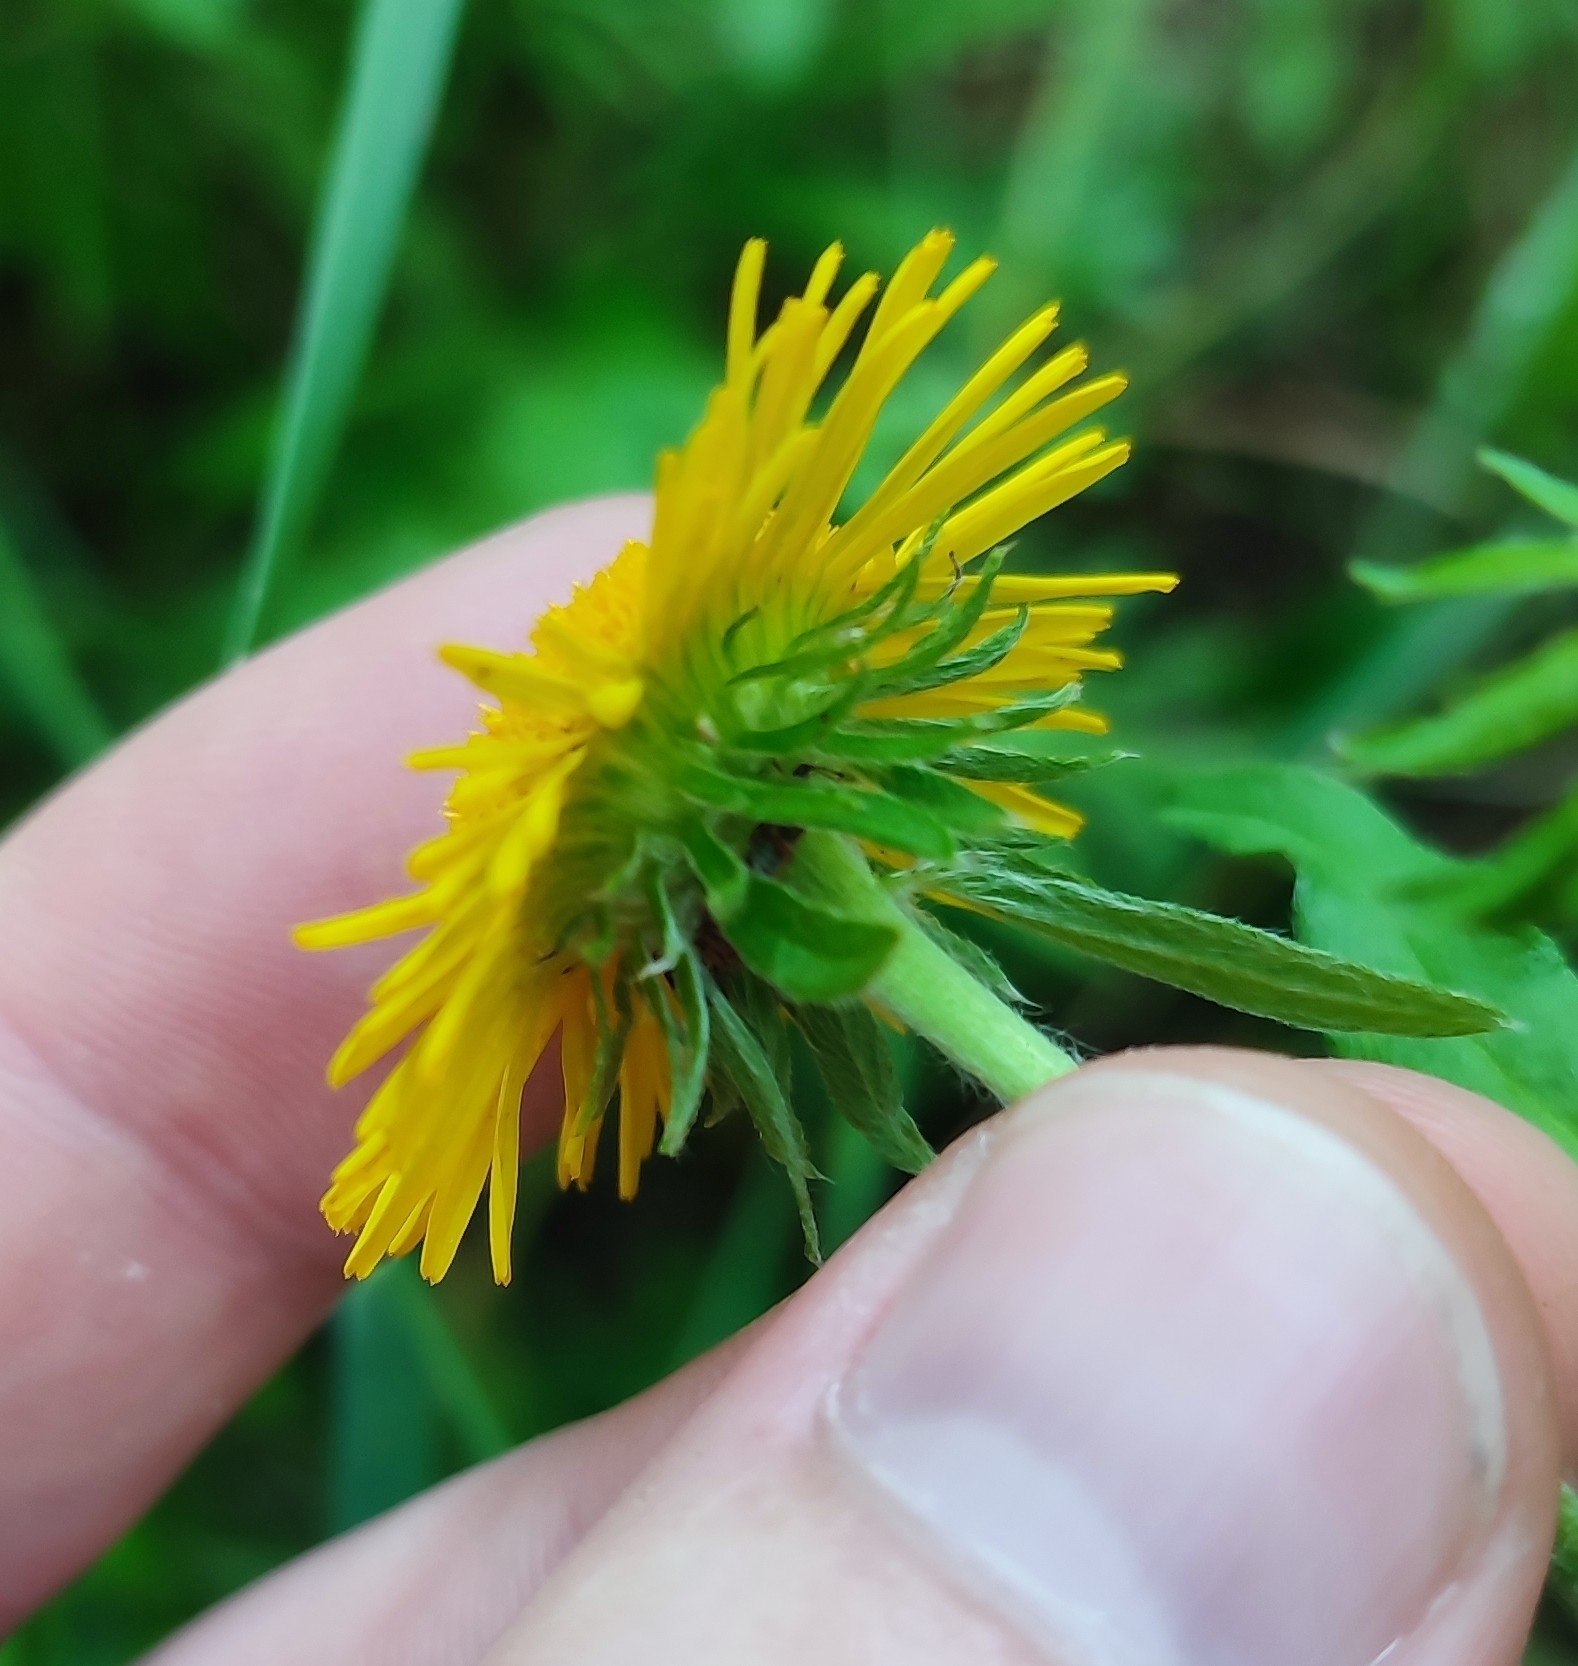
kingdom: Plantae
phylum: Tracheophyta
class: Magnoliopsida
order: Asterales
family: Asteraceae
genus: Pentanema
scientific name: Pentanema britannicum
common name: British elecampane
